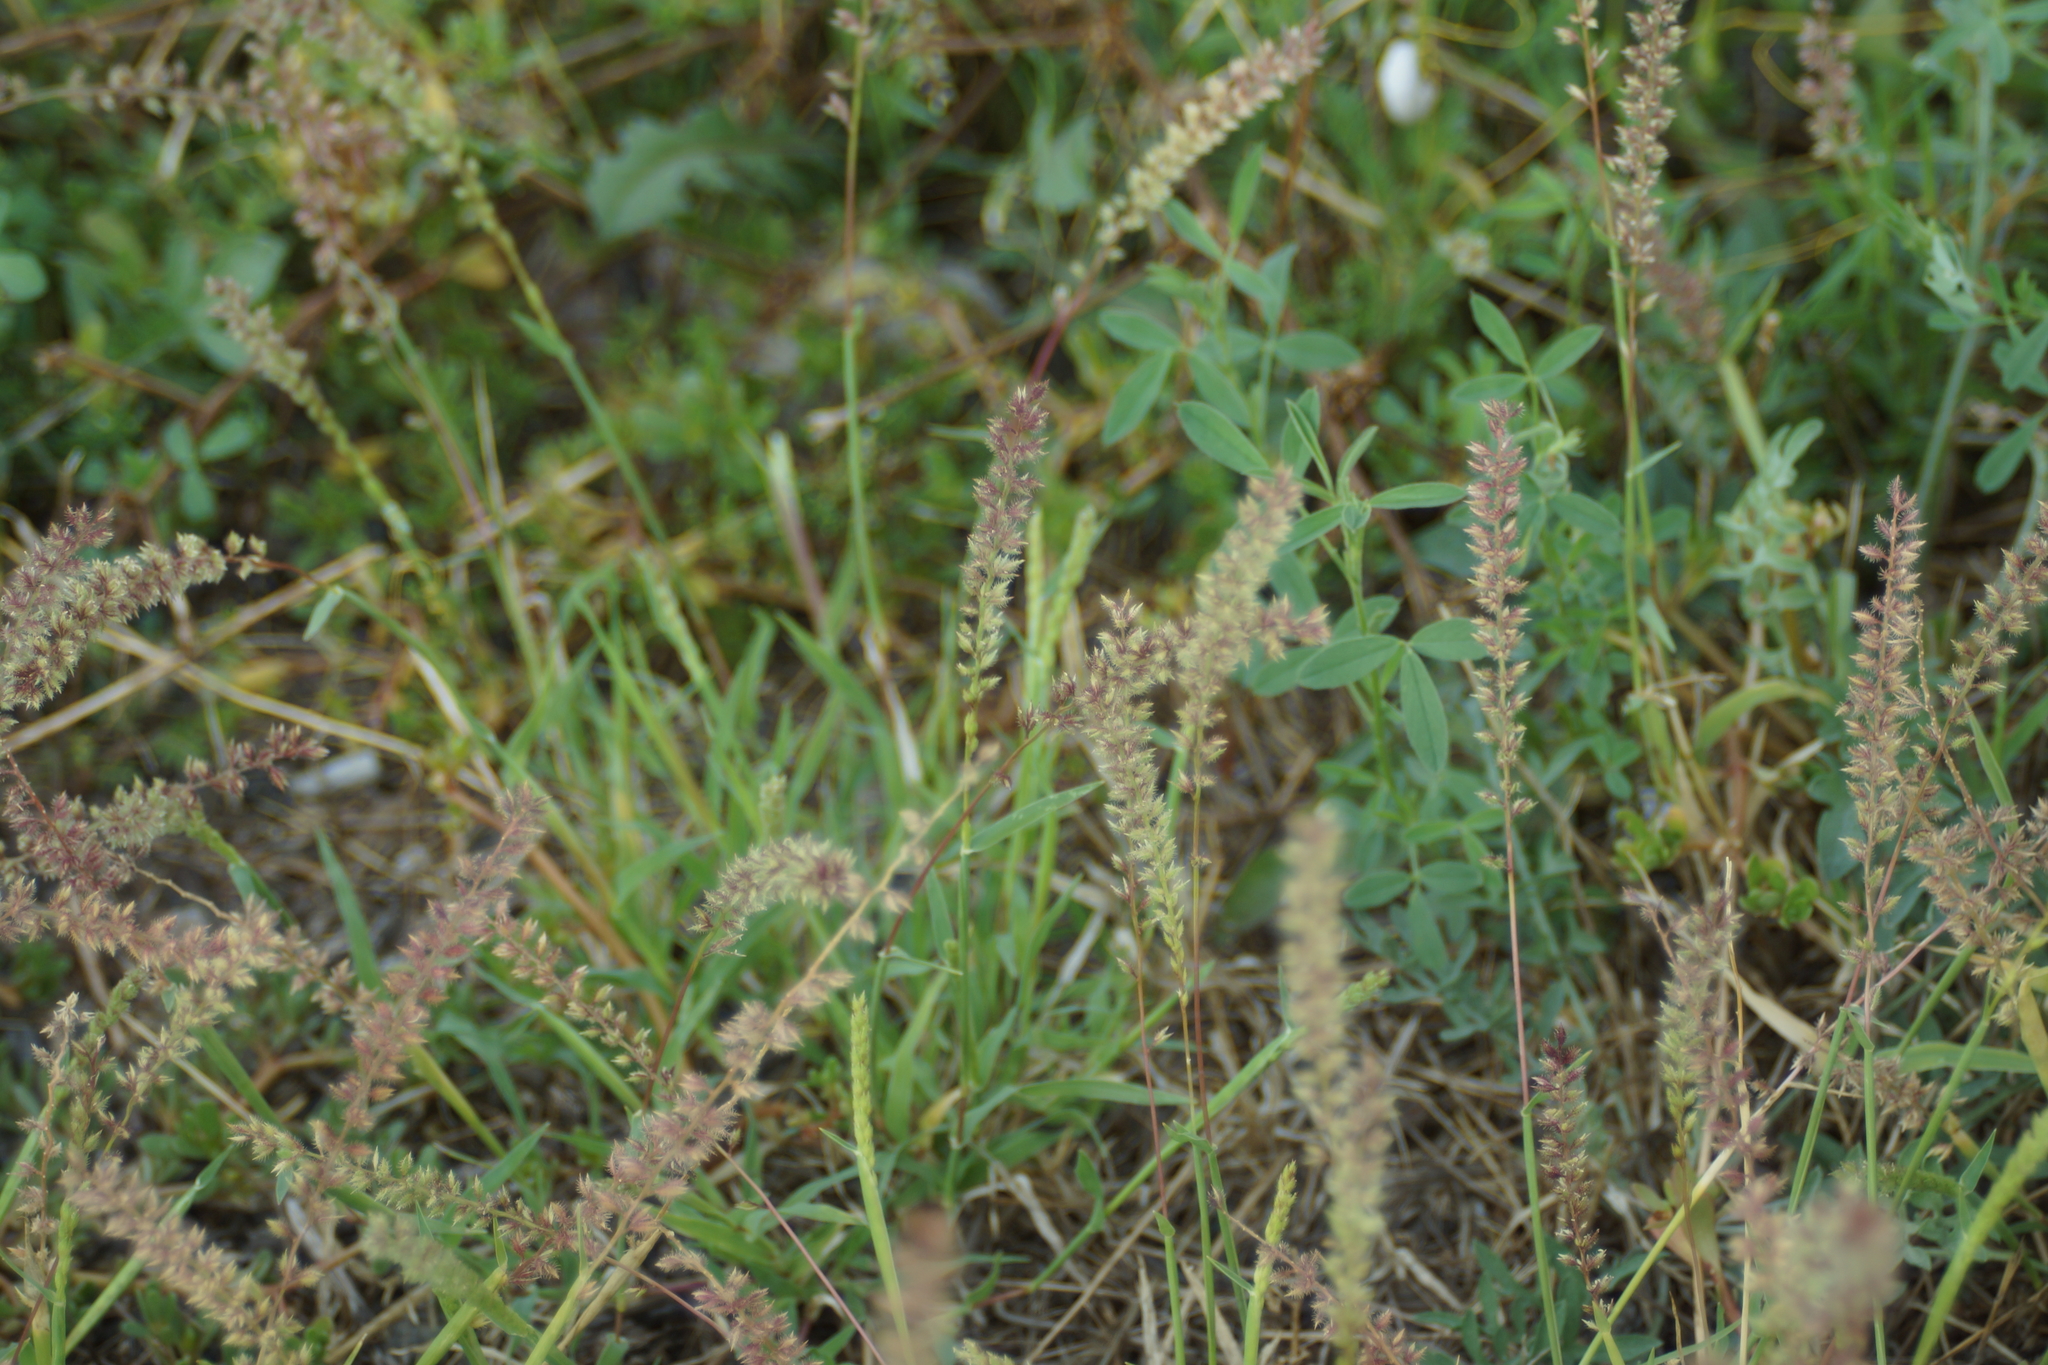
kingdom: Plantae
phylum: Tracheophyta
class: Liliopsida
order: Poales
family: Poaceae
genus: Tragus
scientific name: Tragus racemosus
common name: European bur-grass
